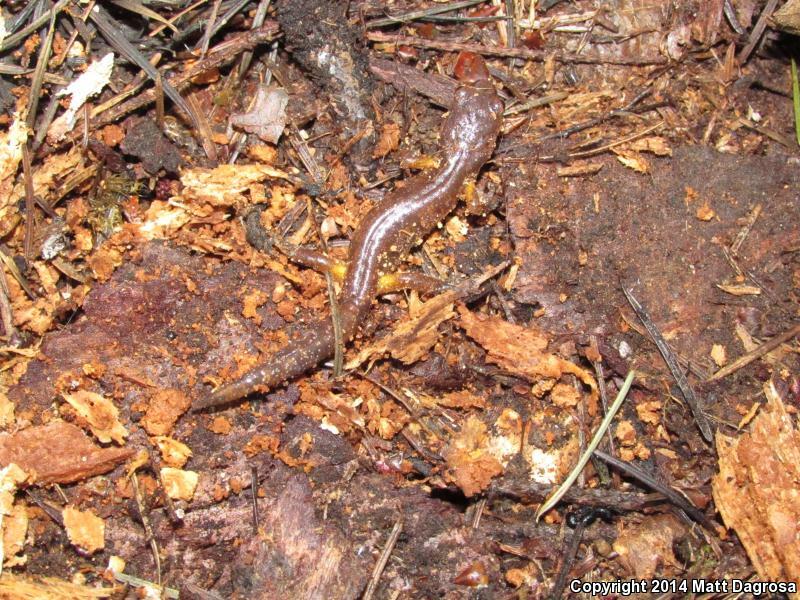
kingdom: Animalia
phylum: Chordata
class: Amphibia
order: Caudata
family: Plethodontidae
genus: Ensatina
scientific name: Ensatina eschscholtzii
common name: Ensatina
